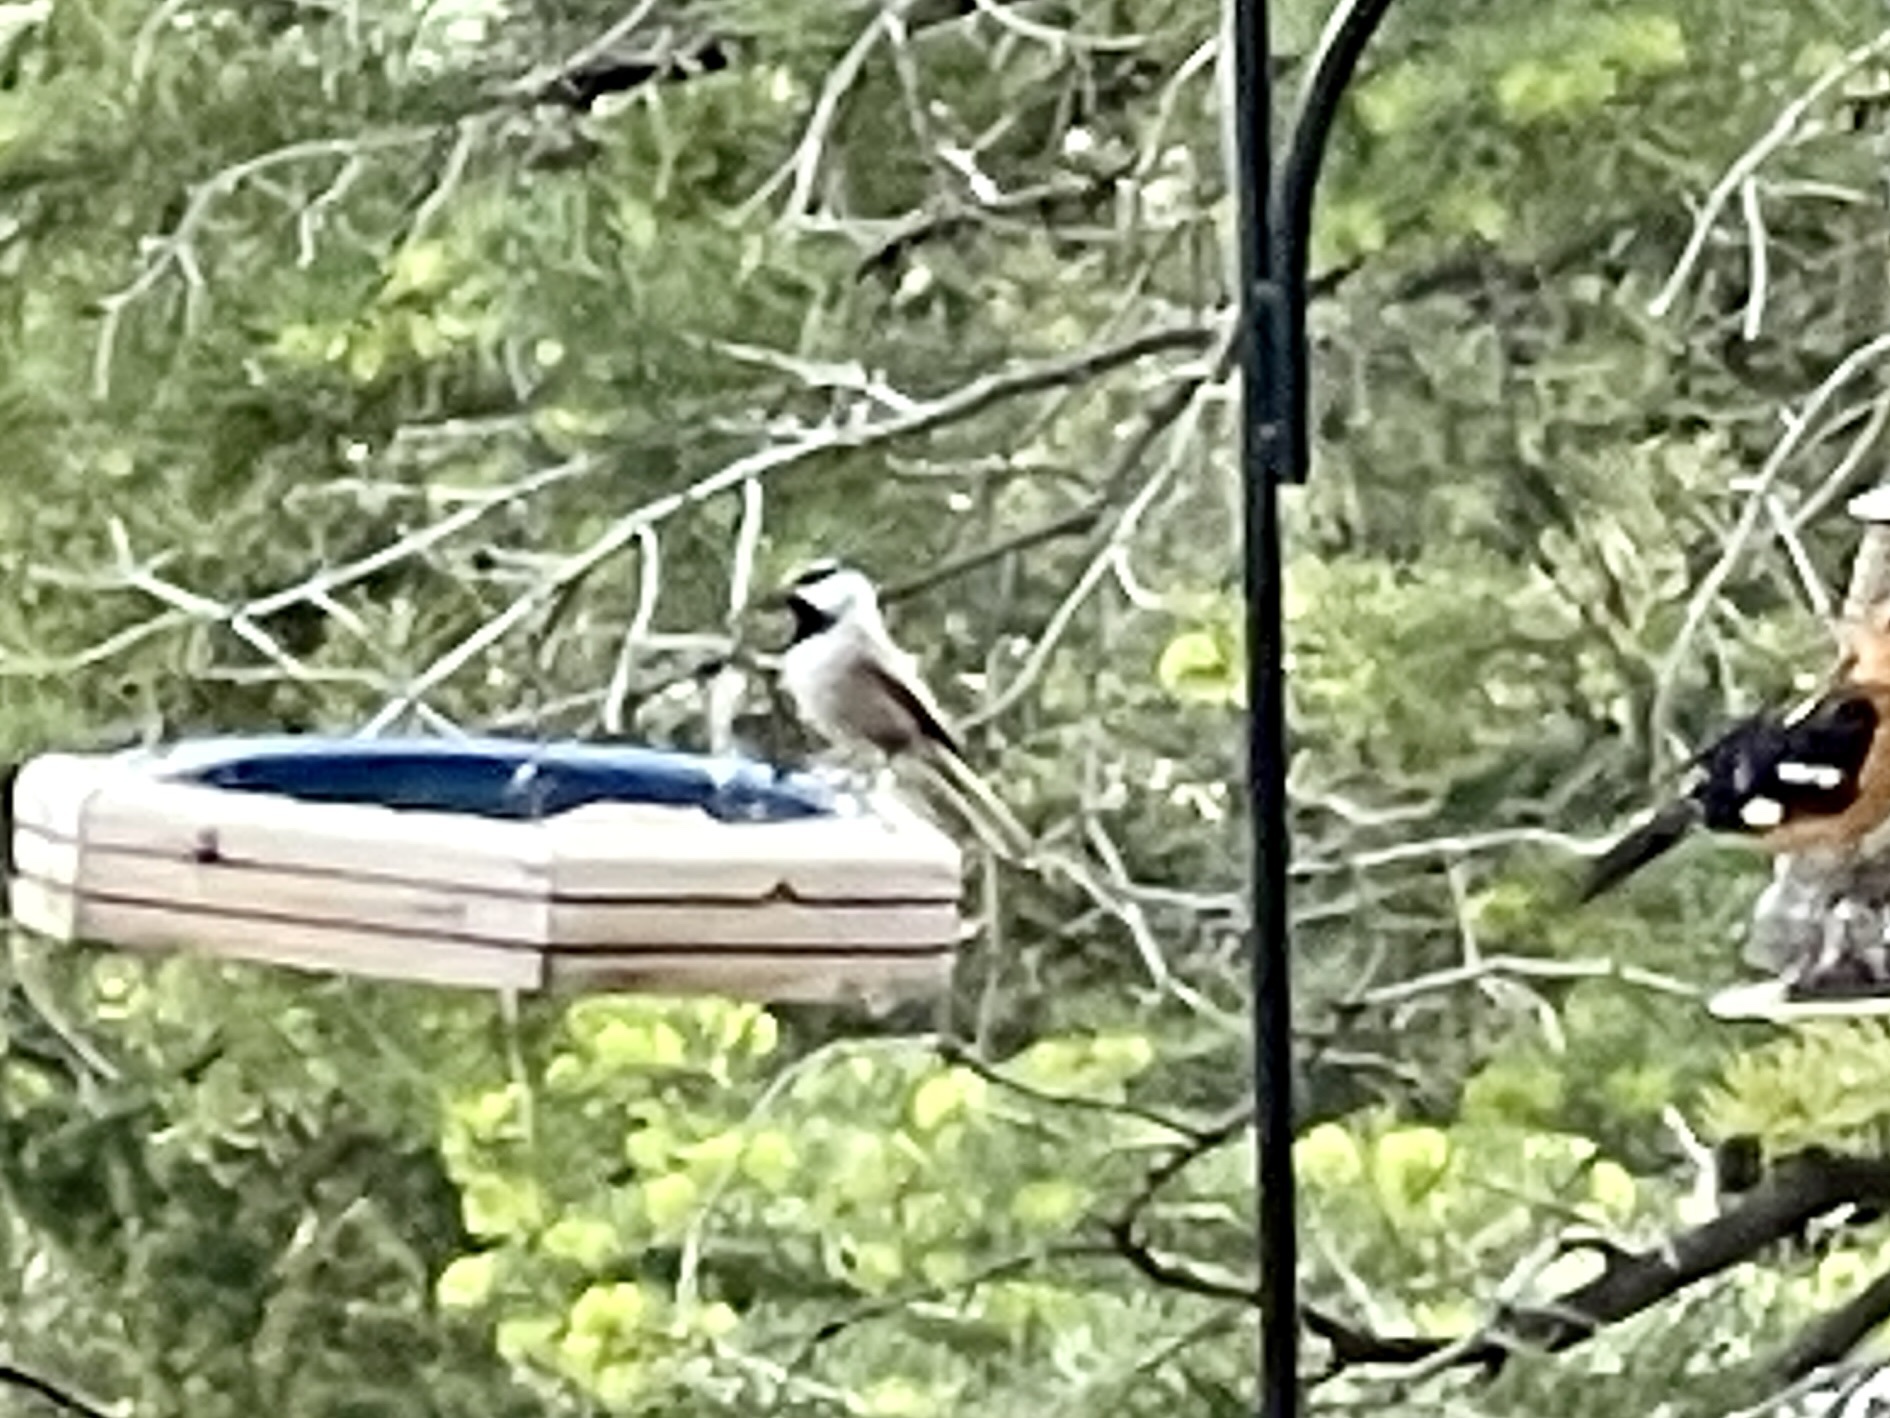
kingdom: Animalia
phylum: Chordata
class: Aves
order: Passeriformes
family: Paridae
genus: Poecile
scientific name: Poecile gambeli
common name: Mountain chickadee
